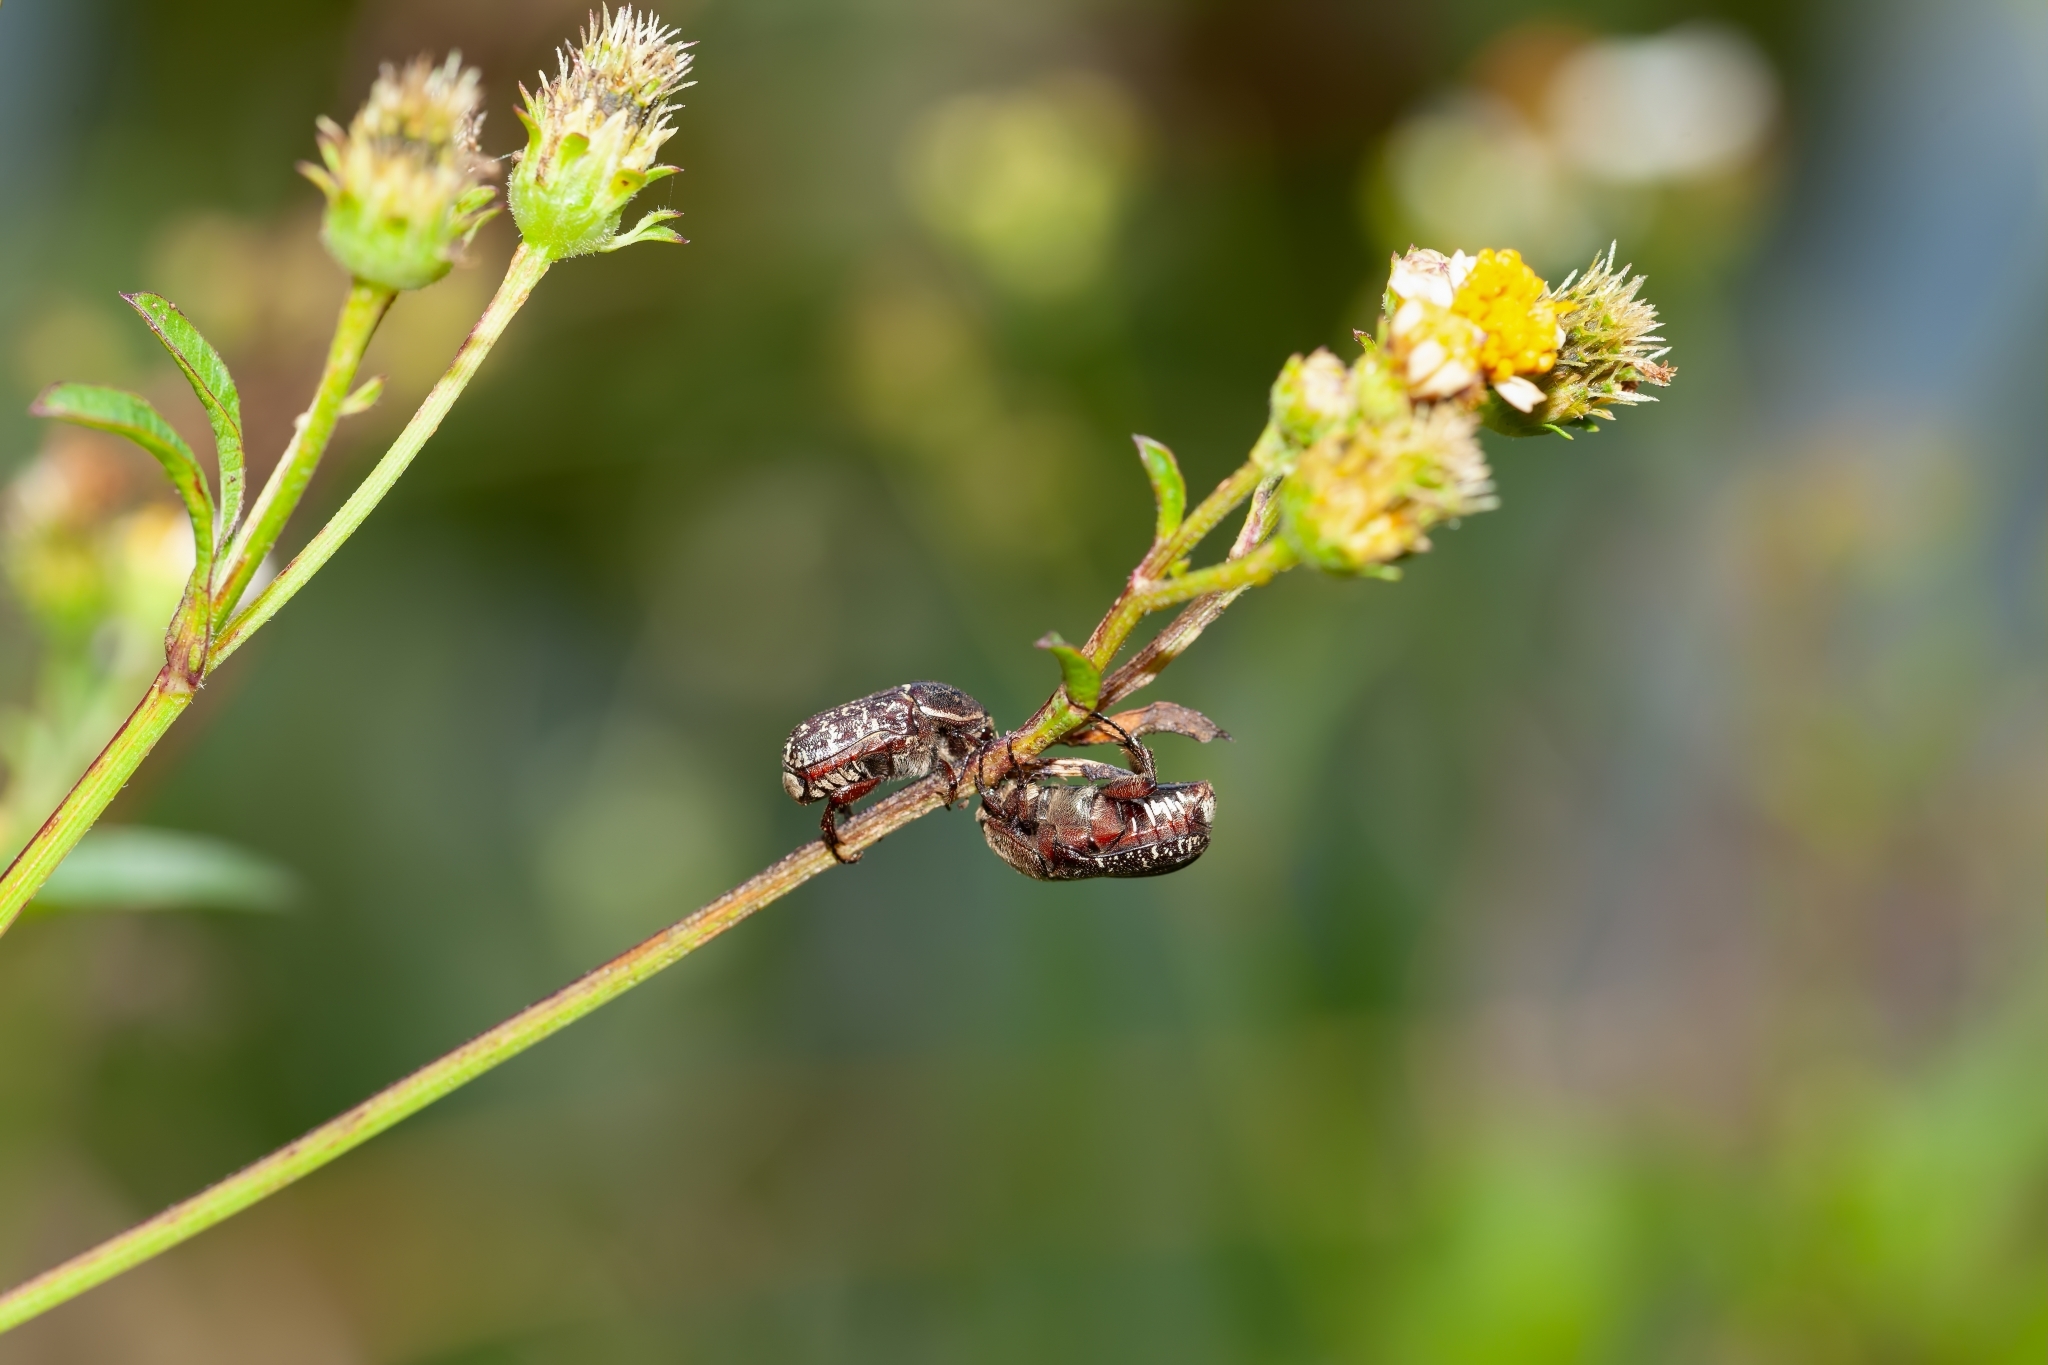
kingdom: Animalia
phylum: Arthropoda
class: Insecta
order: Coleoptera
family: Scarabaeidae
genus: Euphoria
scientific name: Euphoria sepulcralis
